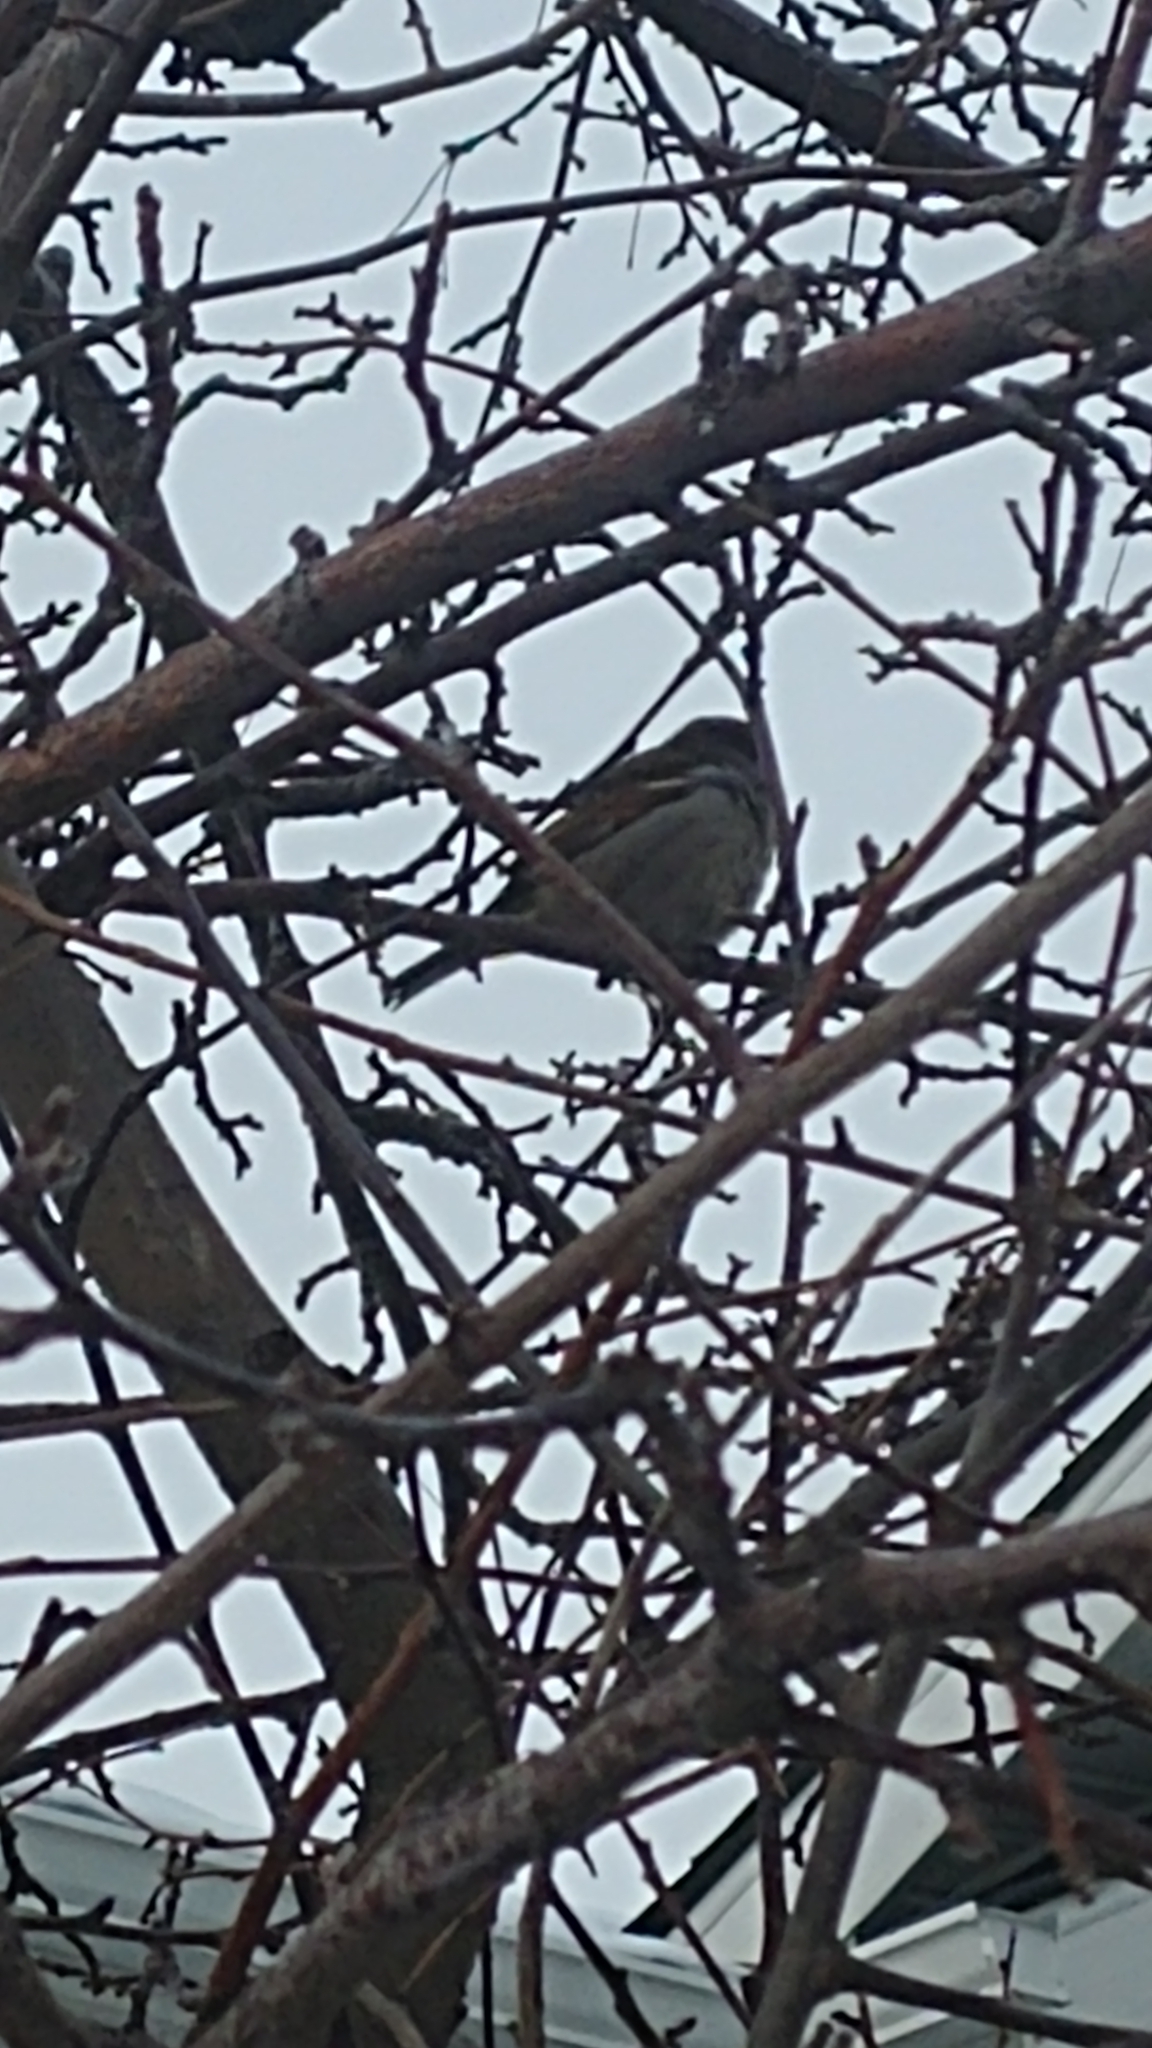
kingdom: Animalia
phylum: Chordata
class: Aves
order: Passeriformes
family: Passeridae
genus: Passer
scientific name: Passer domesticus
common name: House sparrow
